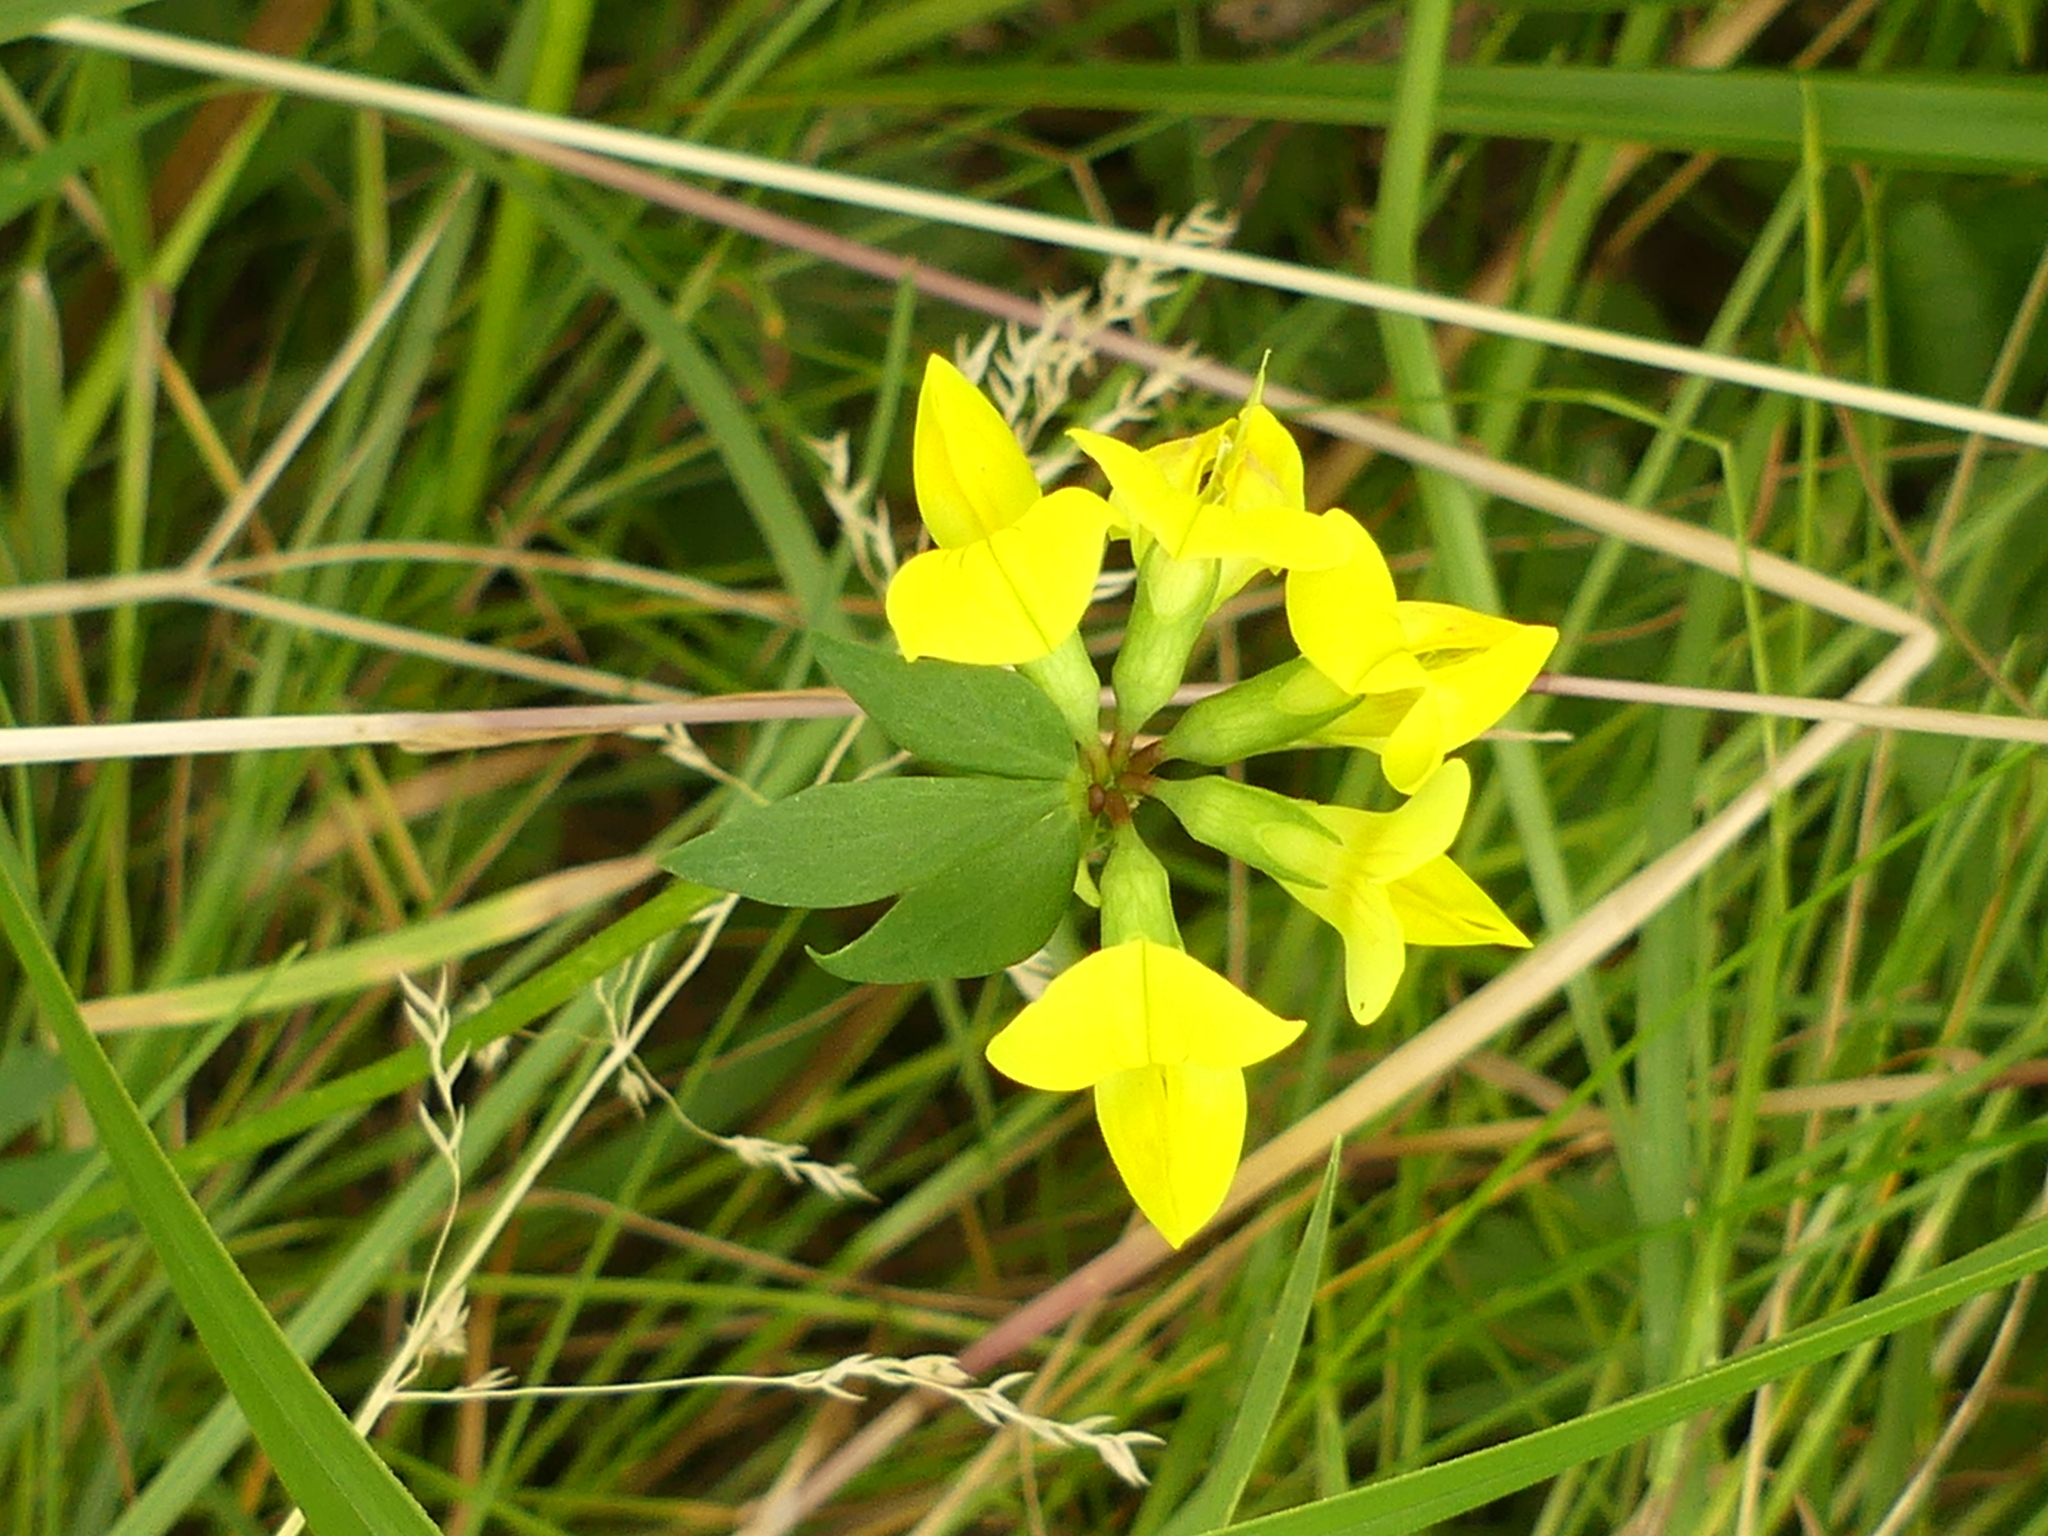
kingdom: Plantae
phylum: Tracheophyta
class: Magnoliopsida
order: Fabales
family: Fabaceae
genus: Lotus
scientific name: Lotus corniculatus
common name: Common bird's-foot-trefoil
